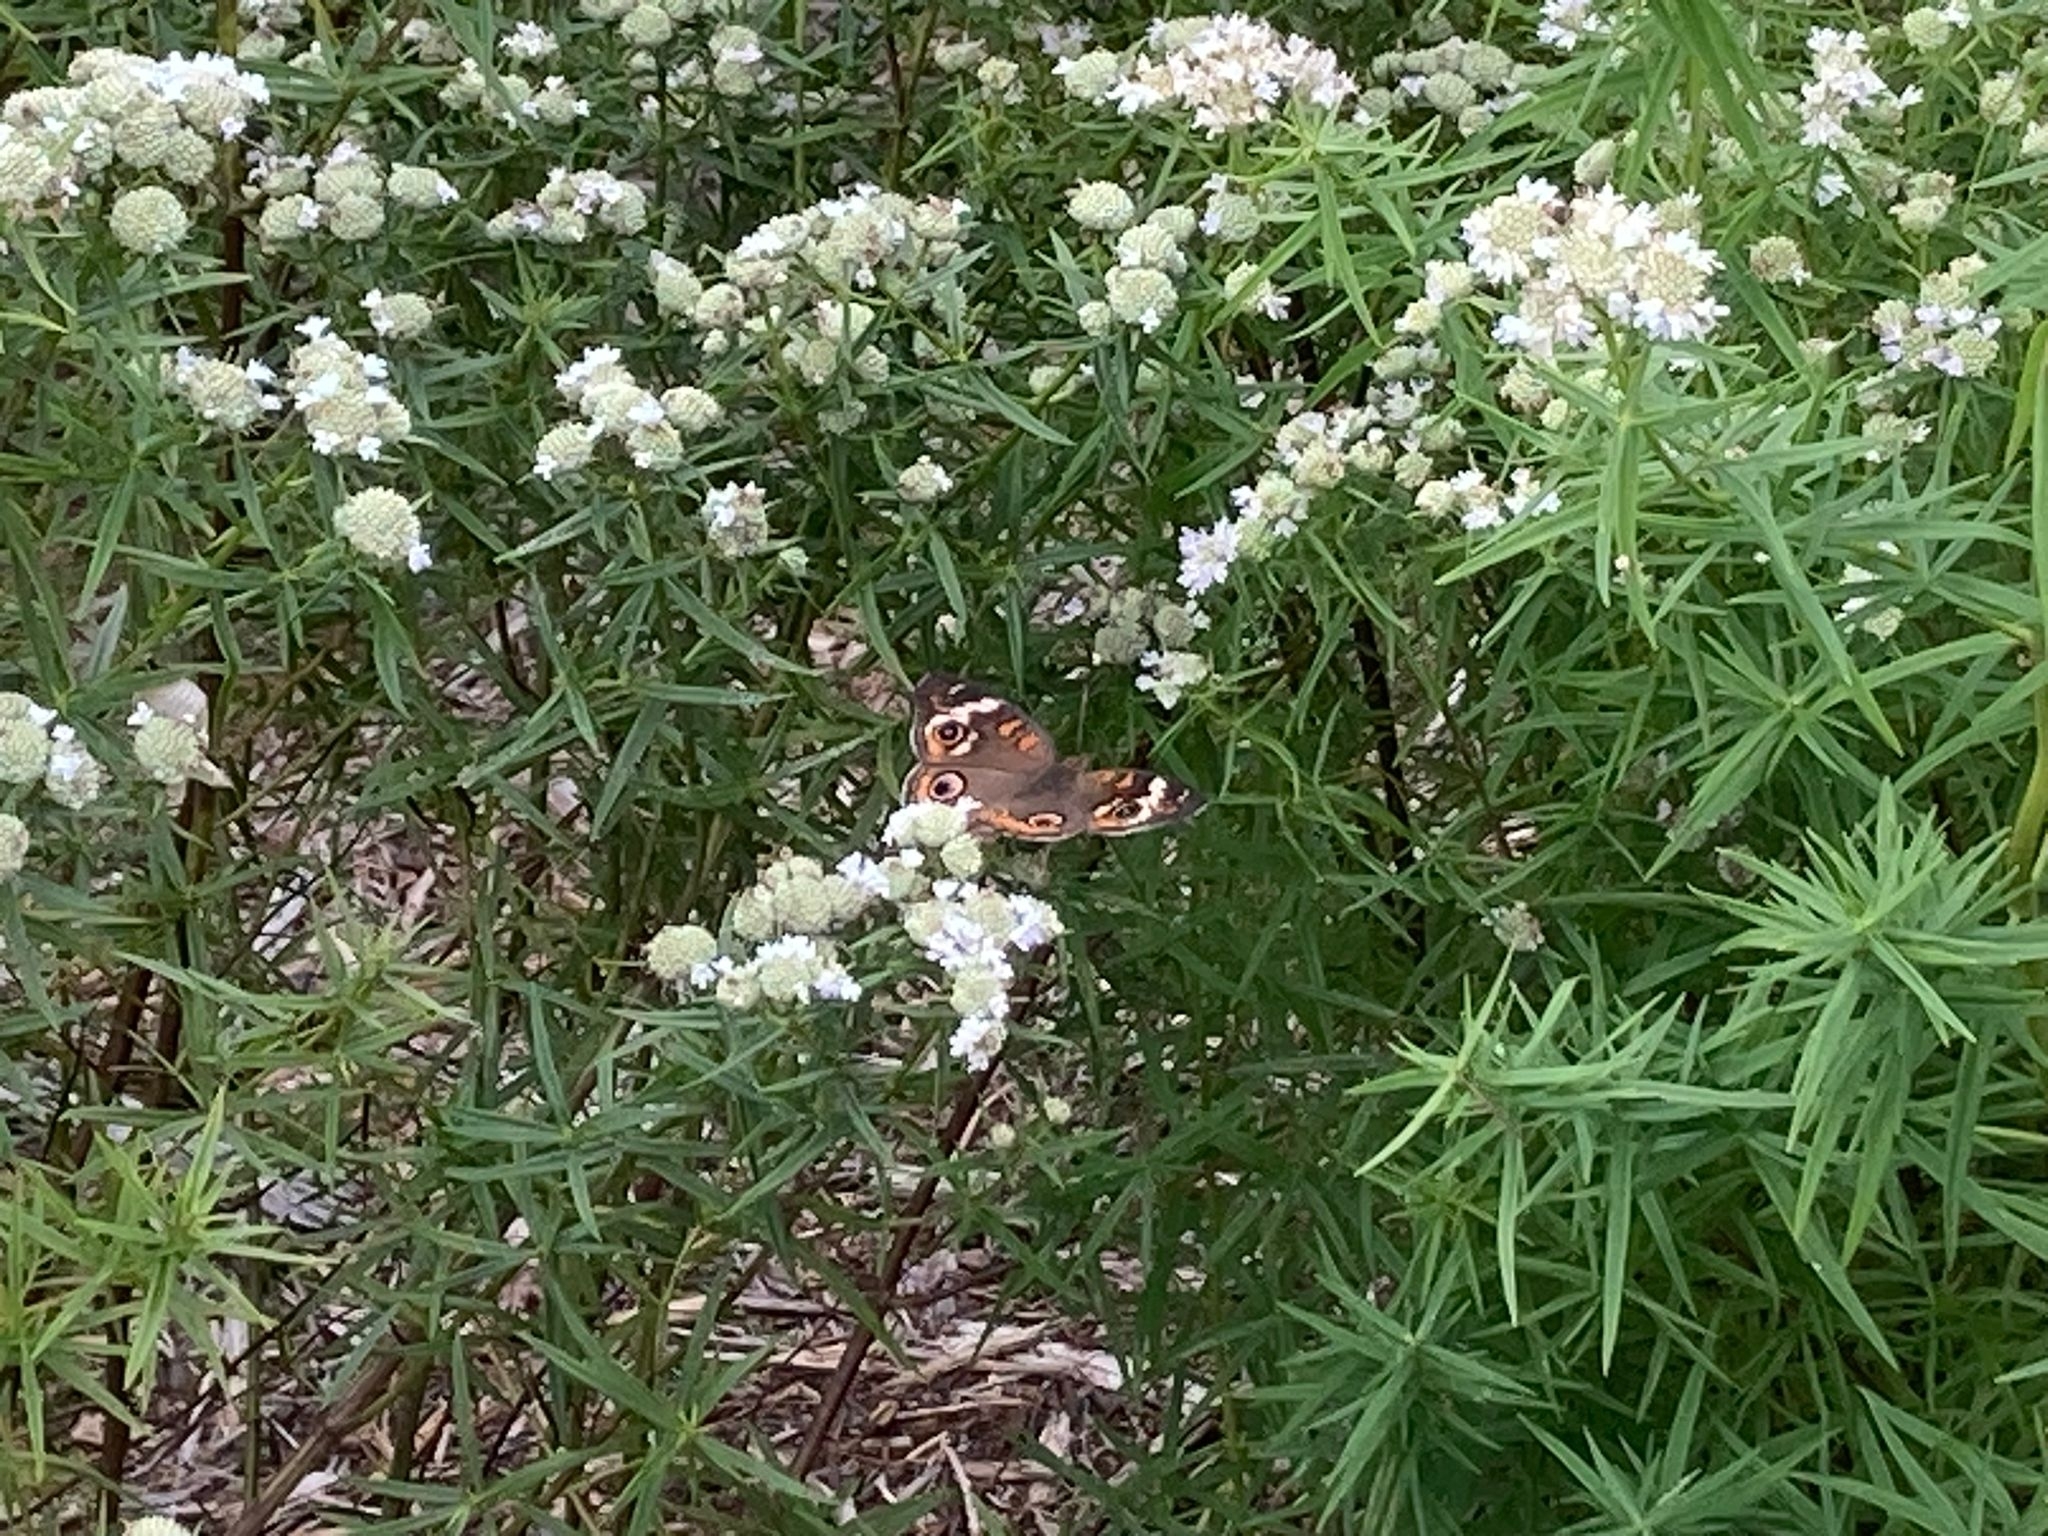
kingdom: Animalia
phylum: Arthropoda
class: Insecta
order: Lepidoptera
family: Nymphalidae
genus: Junonia
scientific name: Junonia coenia
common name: Common buckeye
